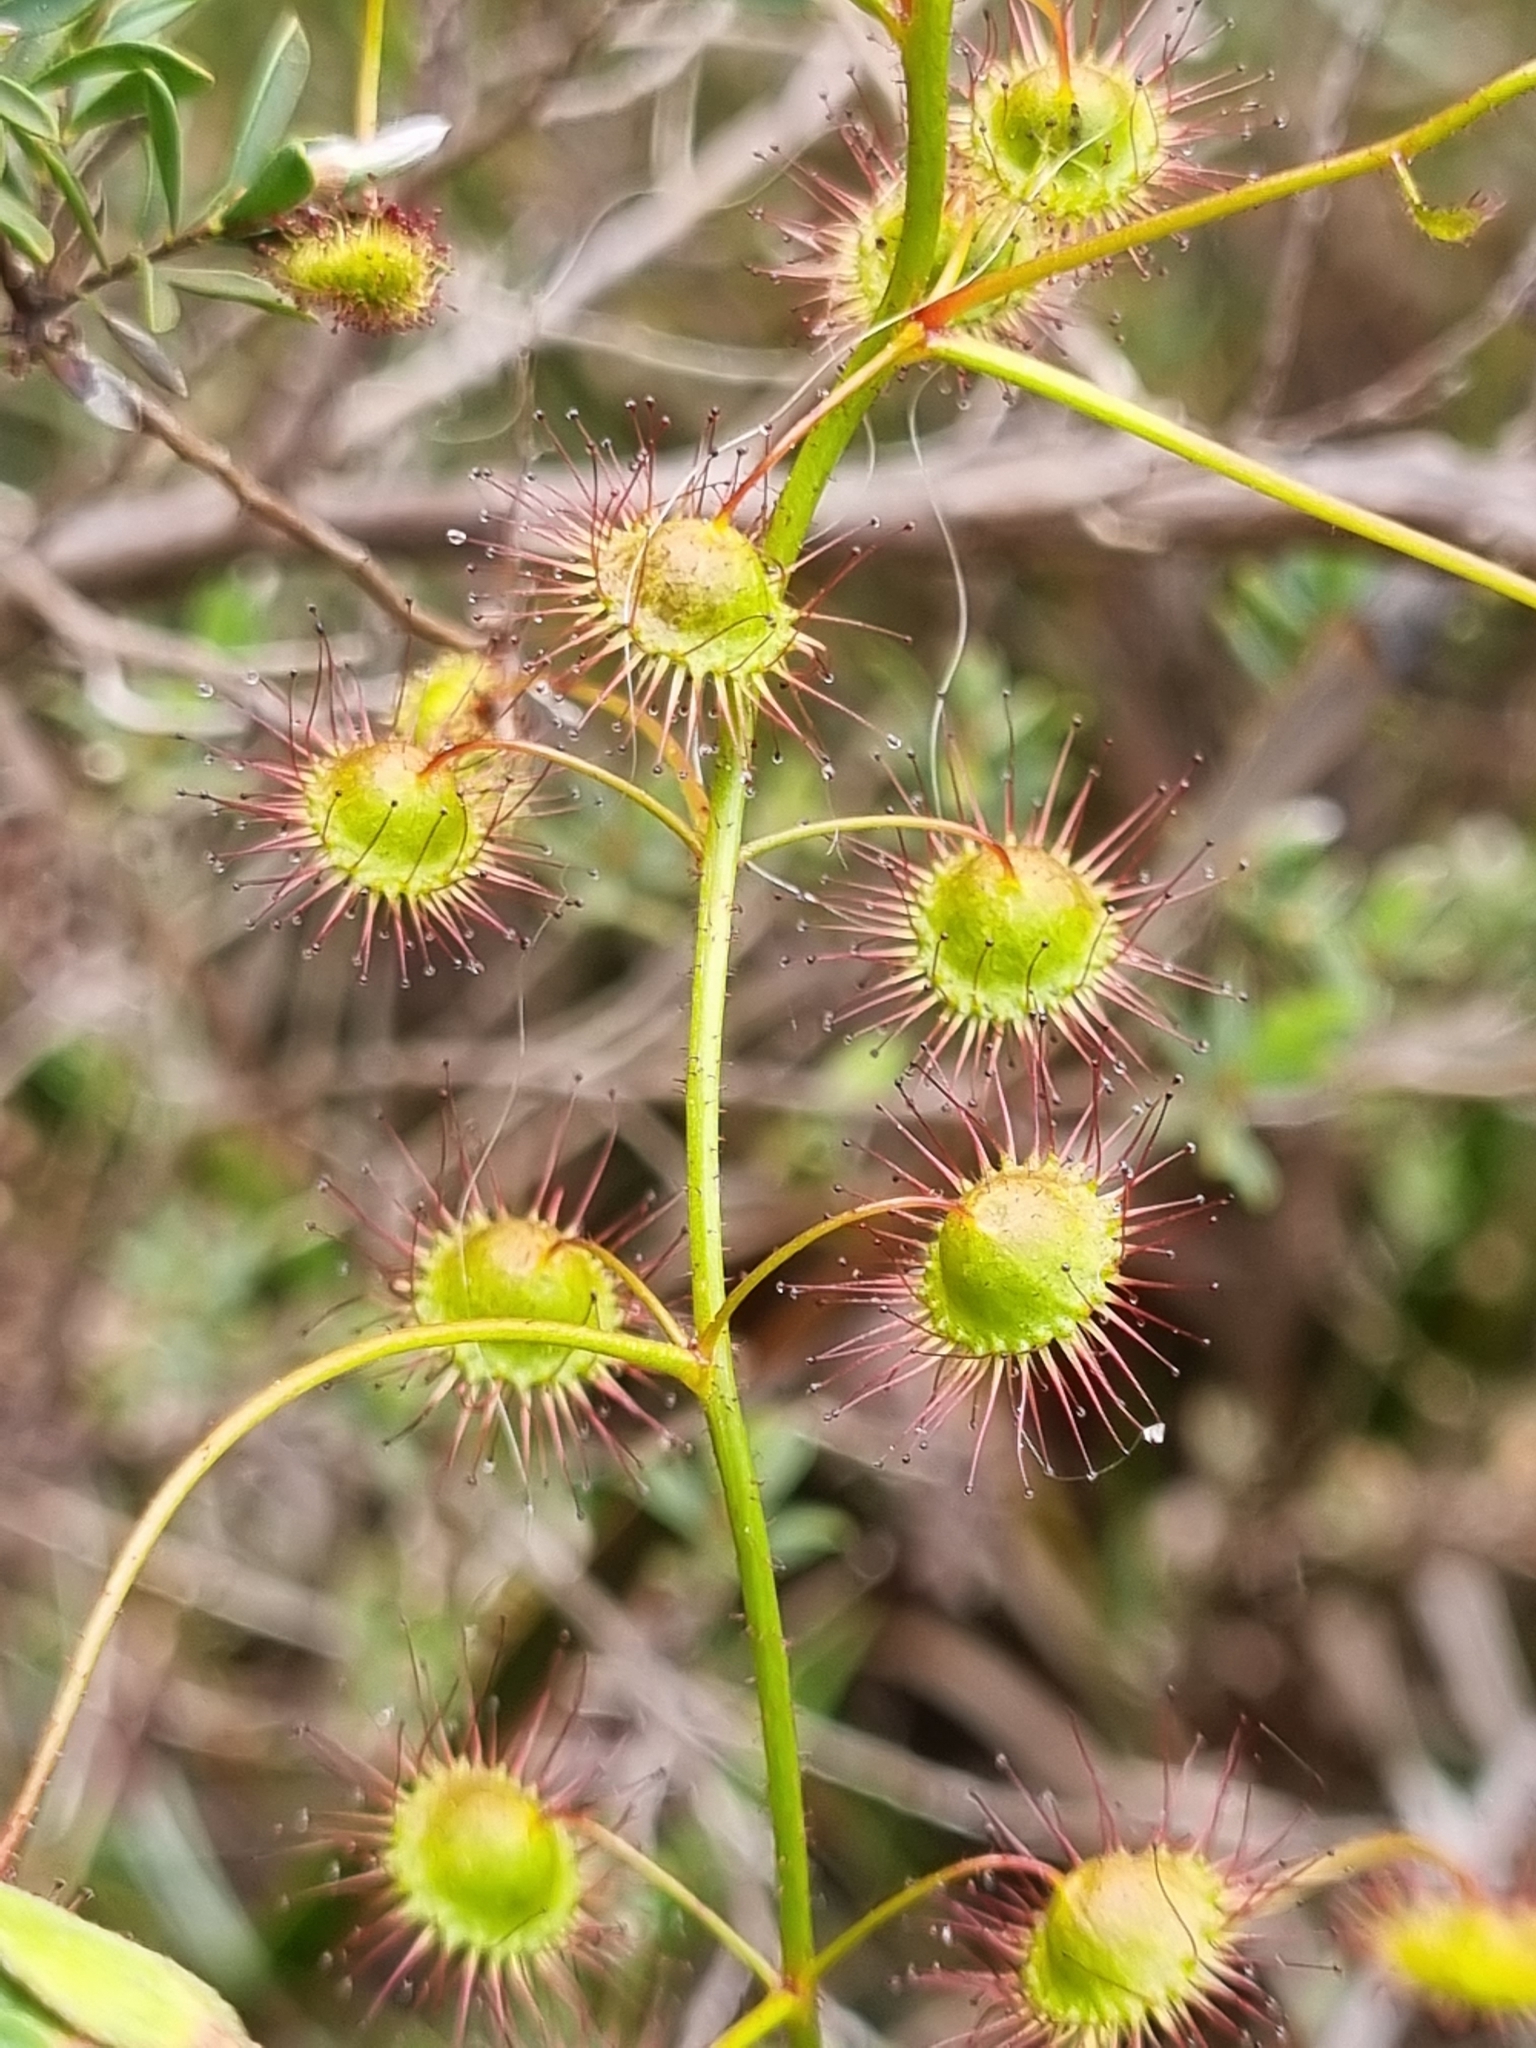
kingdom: Plantae
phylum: Tracheophyta
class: Magnoliopsida
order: Caryophyllales
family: Droseraceae
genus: Drosera
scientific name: Drosera planchonii
